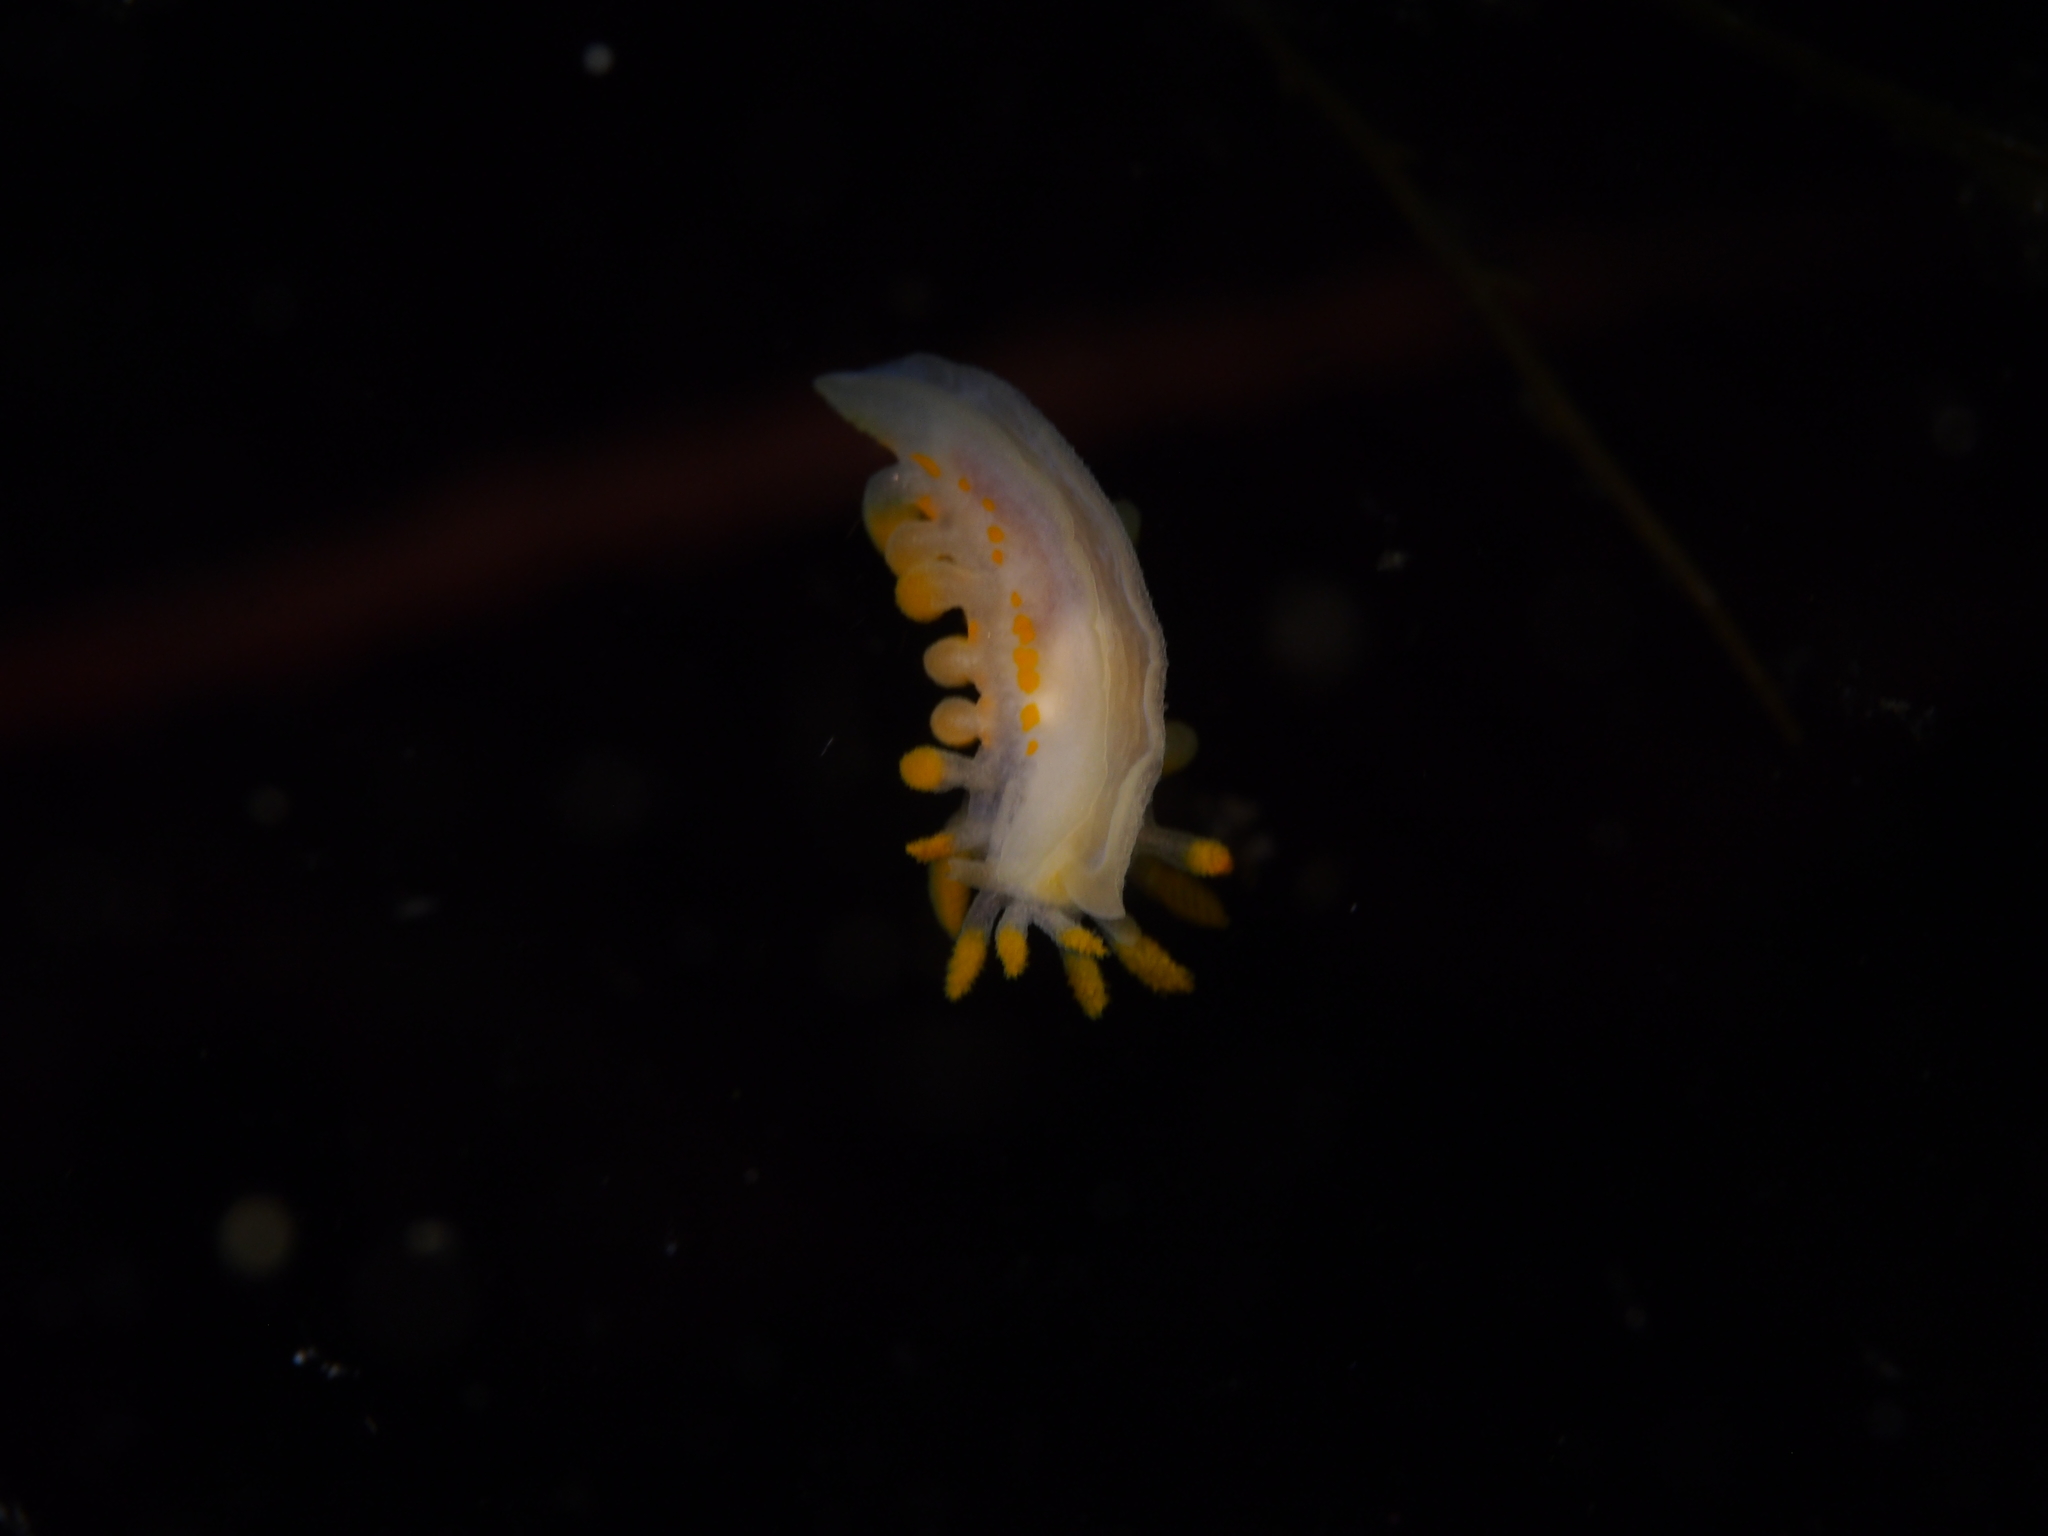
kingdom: Animalia
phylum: Mollusca
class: Gastropoda
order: Nudibranchia
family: Polyceridae
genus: Limacia
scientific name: Limacia clavigera
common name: Orange-clubbed sea slug
